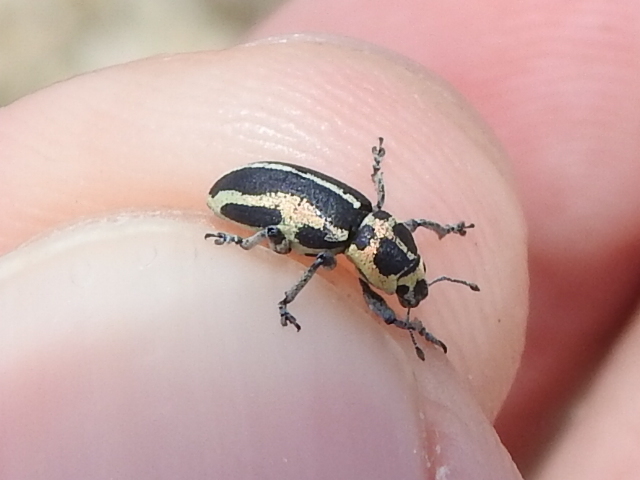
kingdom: Animalia
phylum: Arthropoda
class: Insecta
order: Coleoptera
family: Curculionidae
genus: Eudiagogus
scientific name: Eudiagogus pulcher
